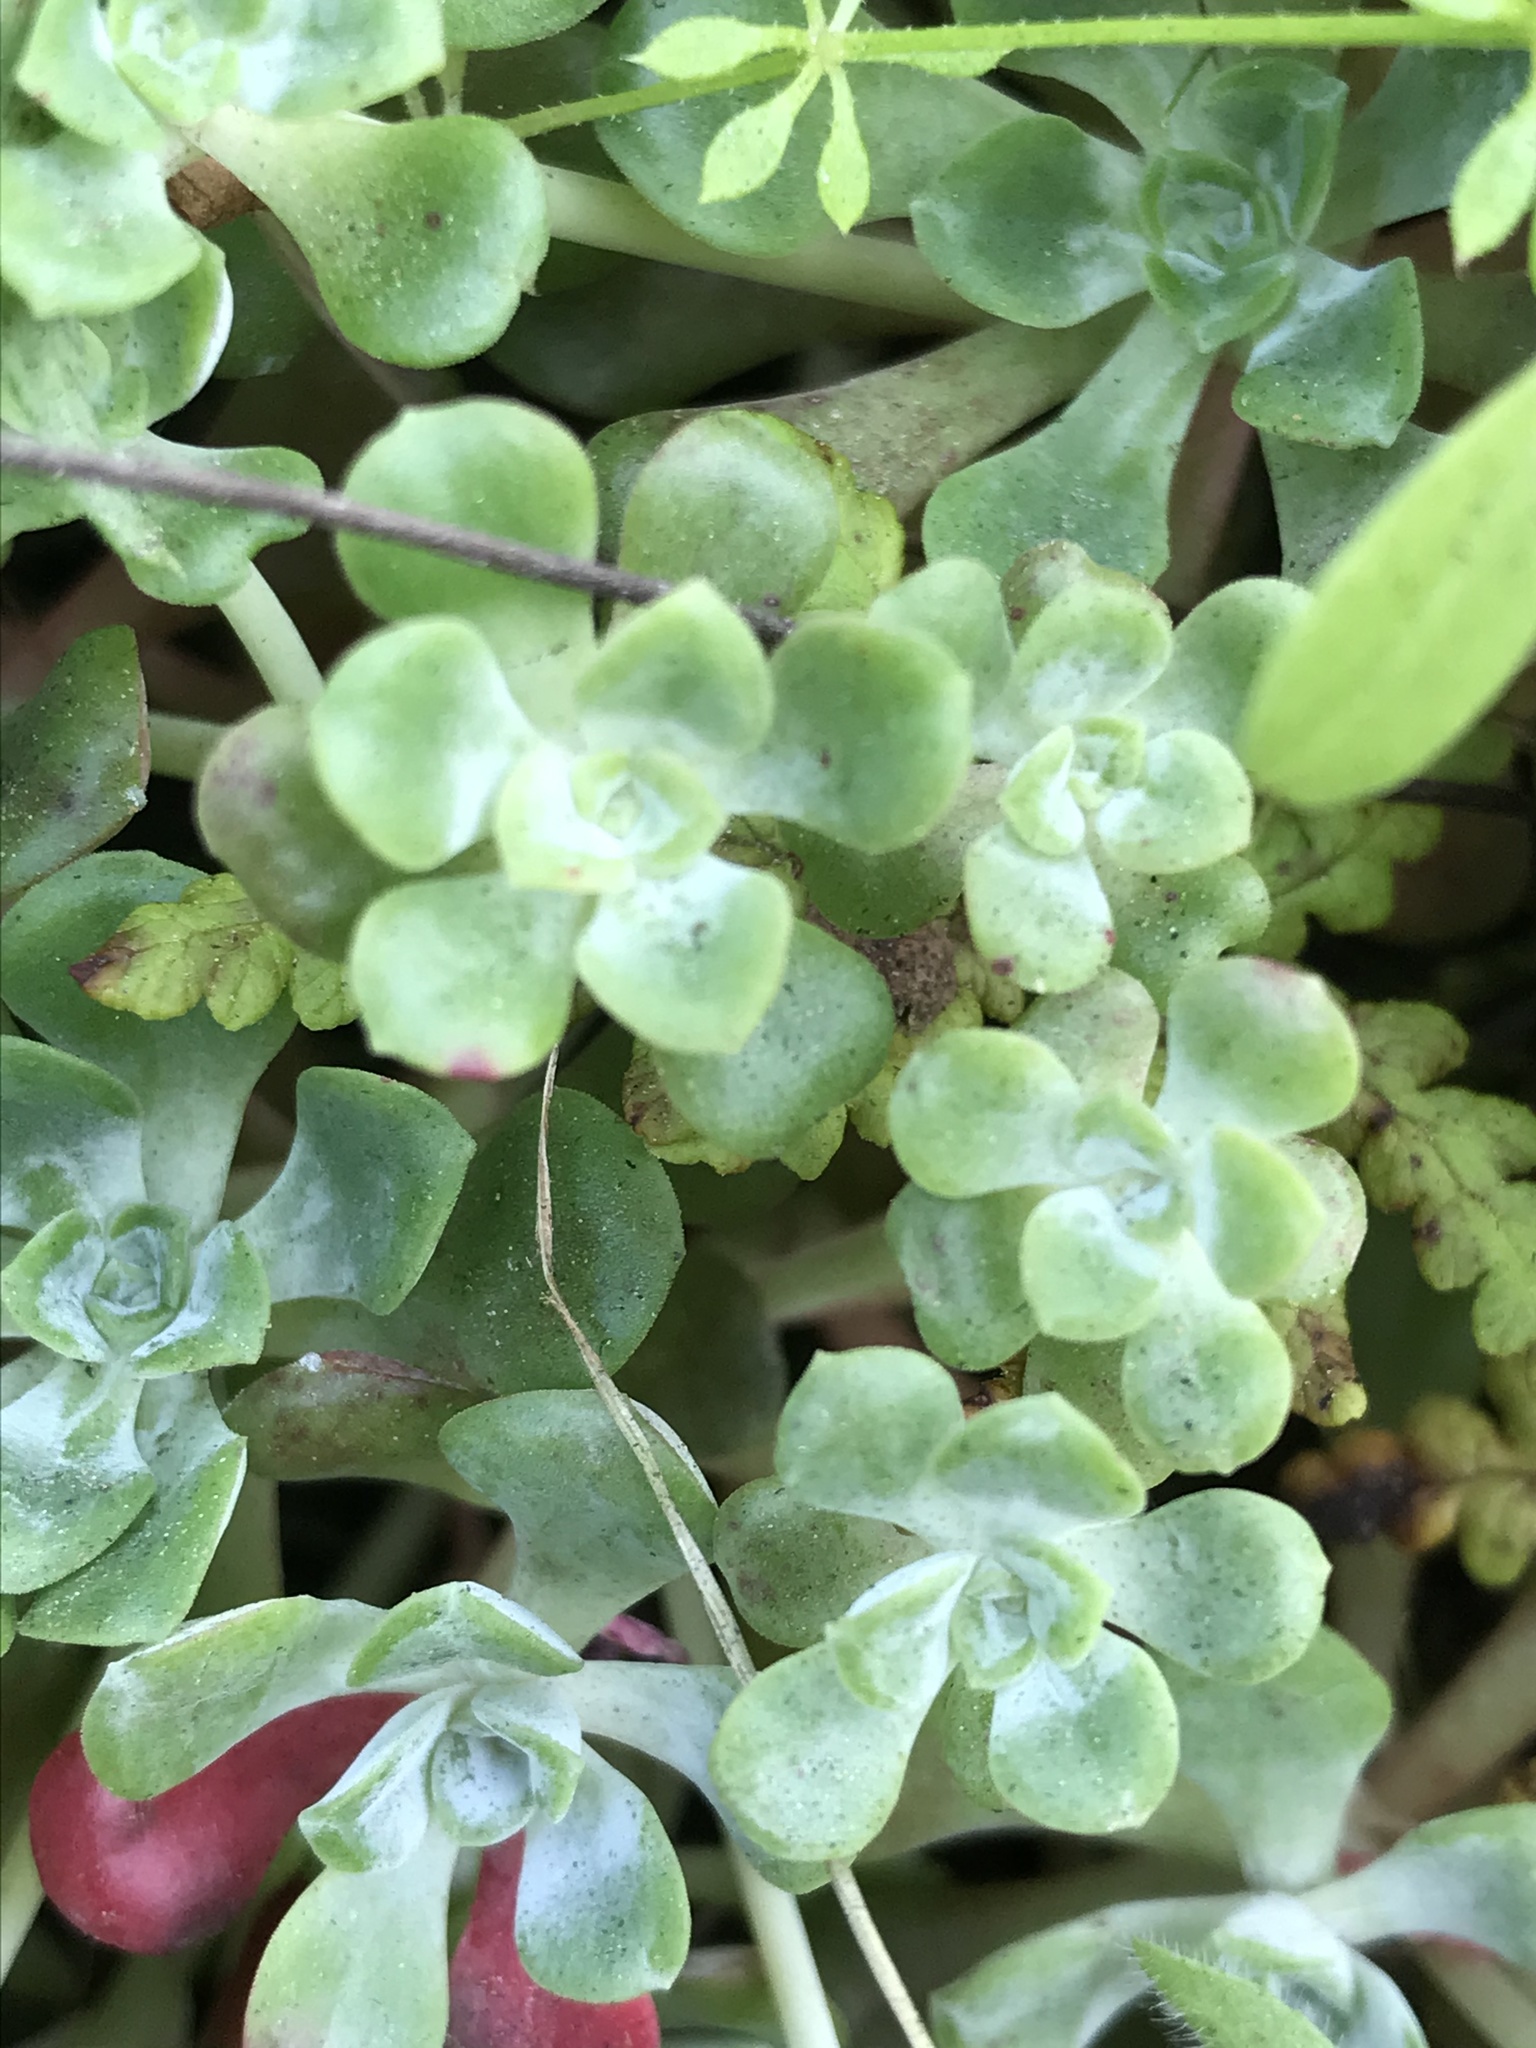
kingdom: Plantae
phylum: Tracheophyta
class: Magnoliopsida
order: Saxifragales
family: Crassulaceae
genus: Sedum
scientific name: Sedum spathulifolium
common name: Colorado stonecrop
